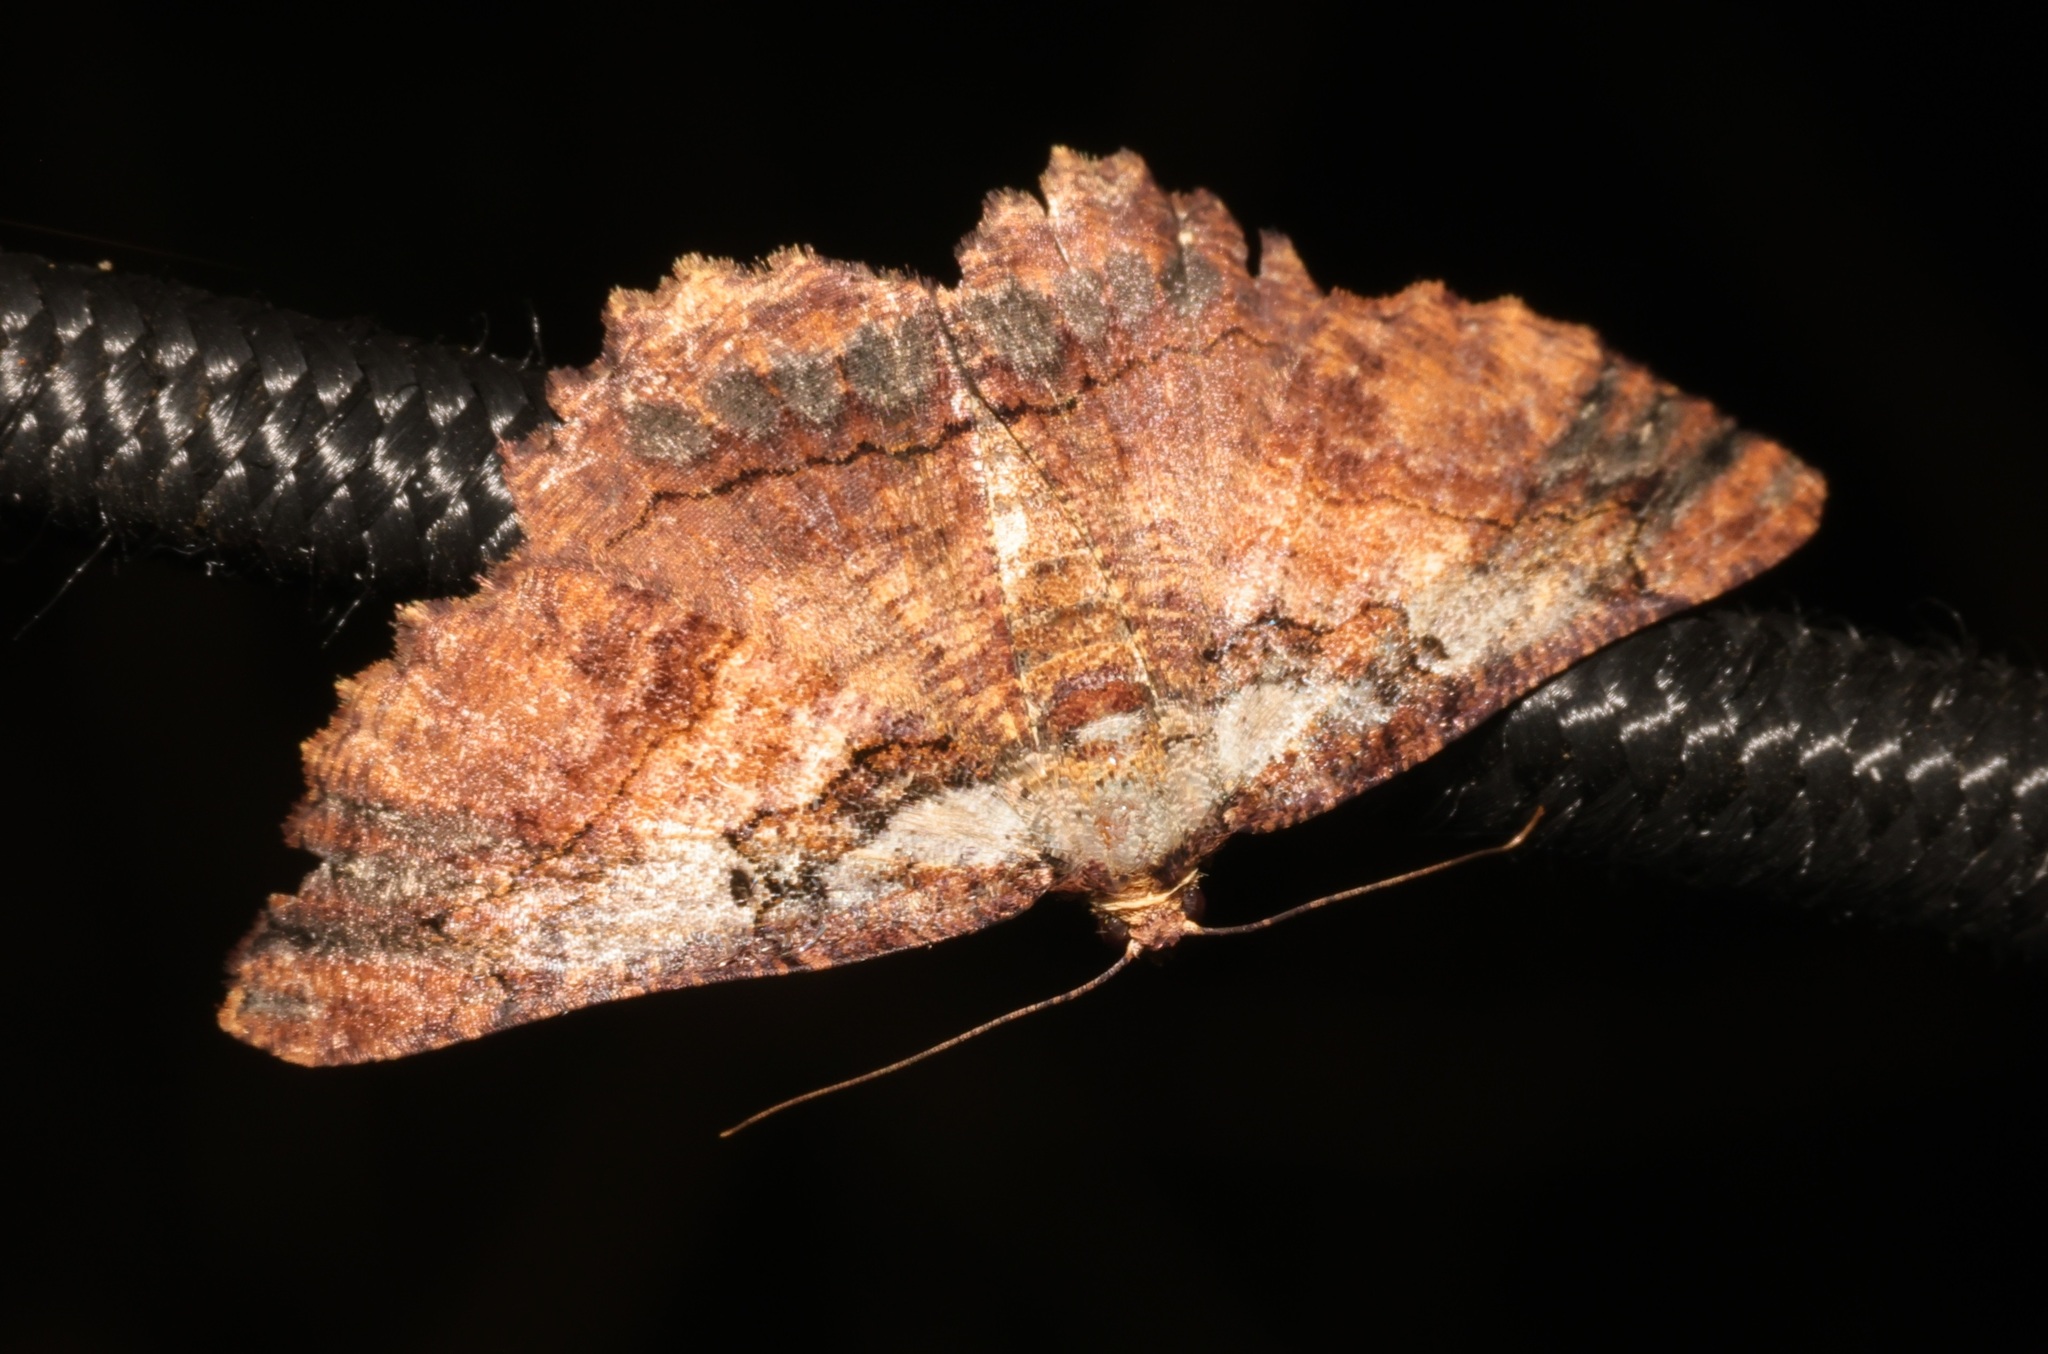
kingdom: Animalia
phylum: Arthropoda
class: Insecta
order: Lepidoptera
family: Geometridae
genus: Dasyboarmia
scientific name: Dasyboarmia subpilosa
